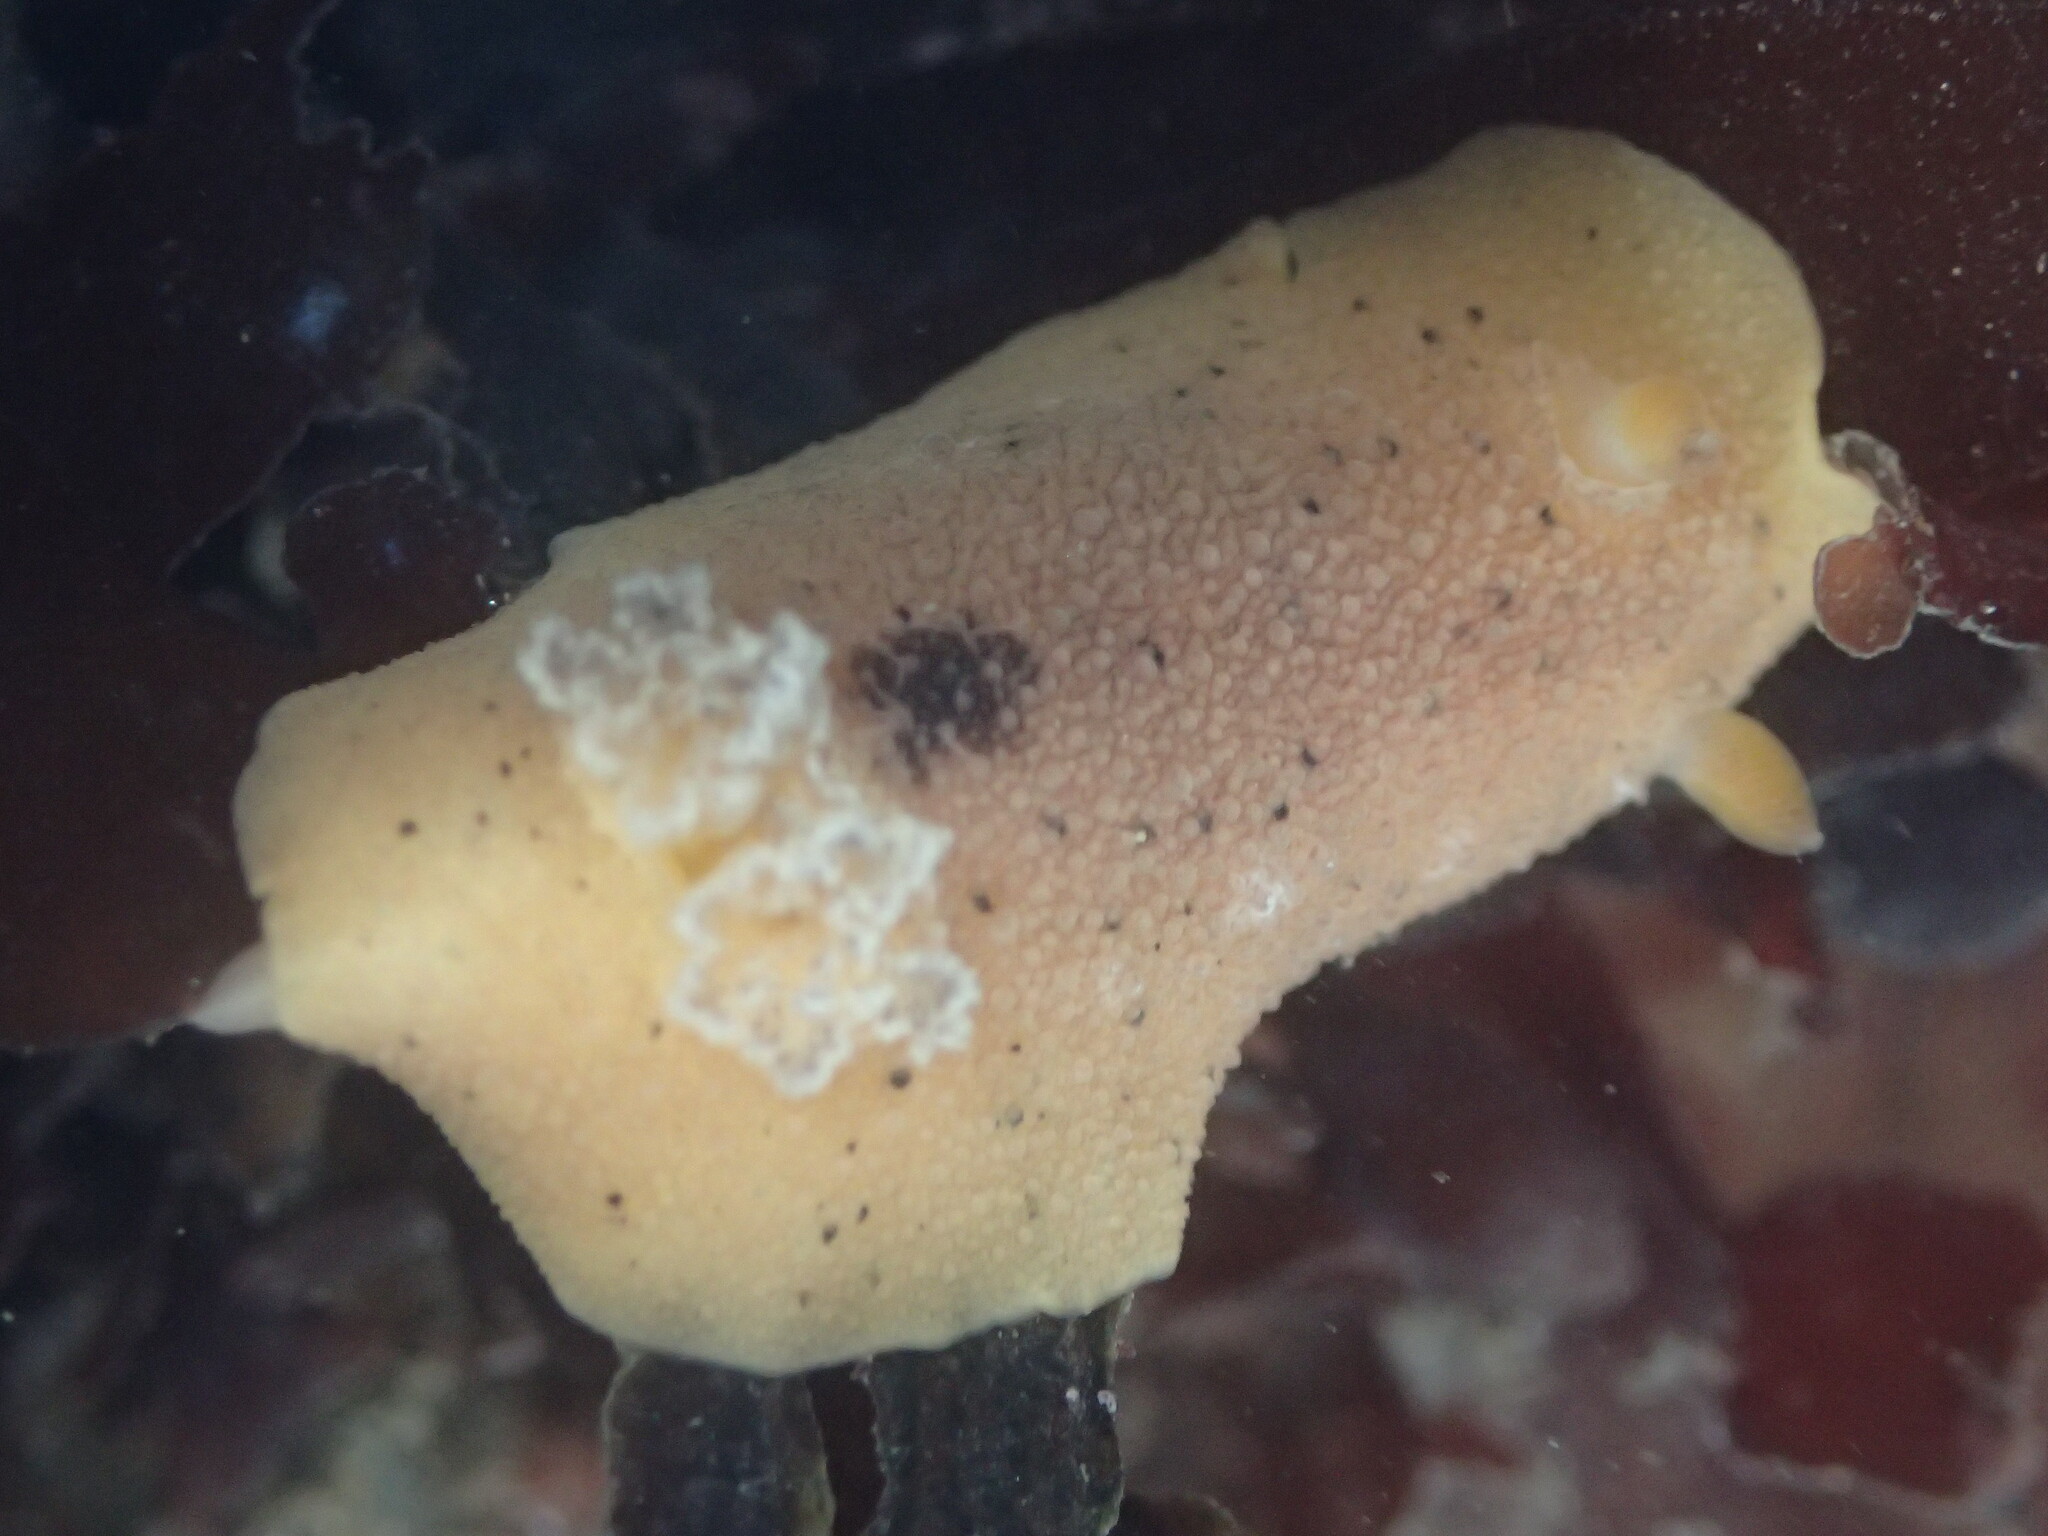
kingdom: Animalia
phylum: Mollusca
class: Gastropoda
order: Nudibranchia
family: Discodorididae
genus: Geitodoris
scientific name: Geitodoris heathi
